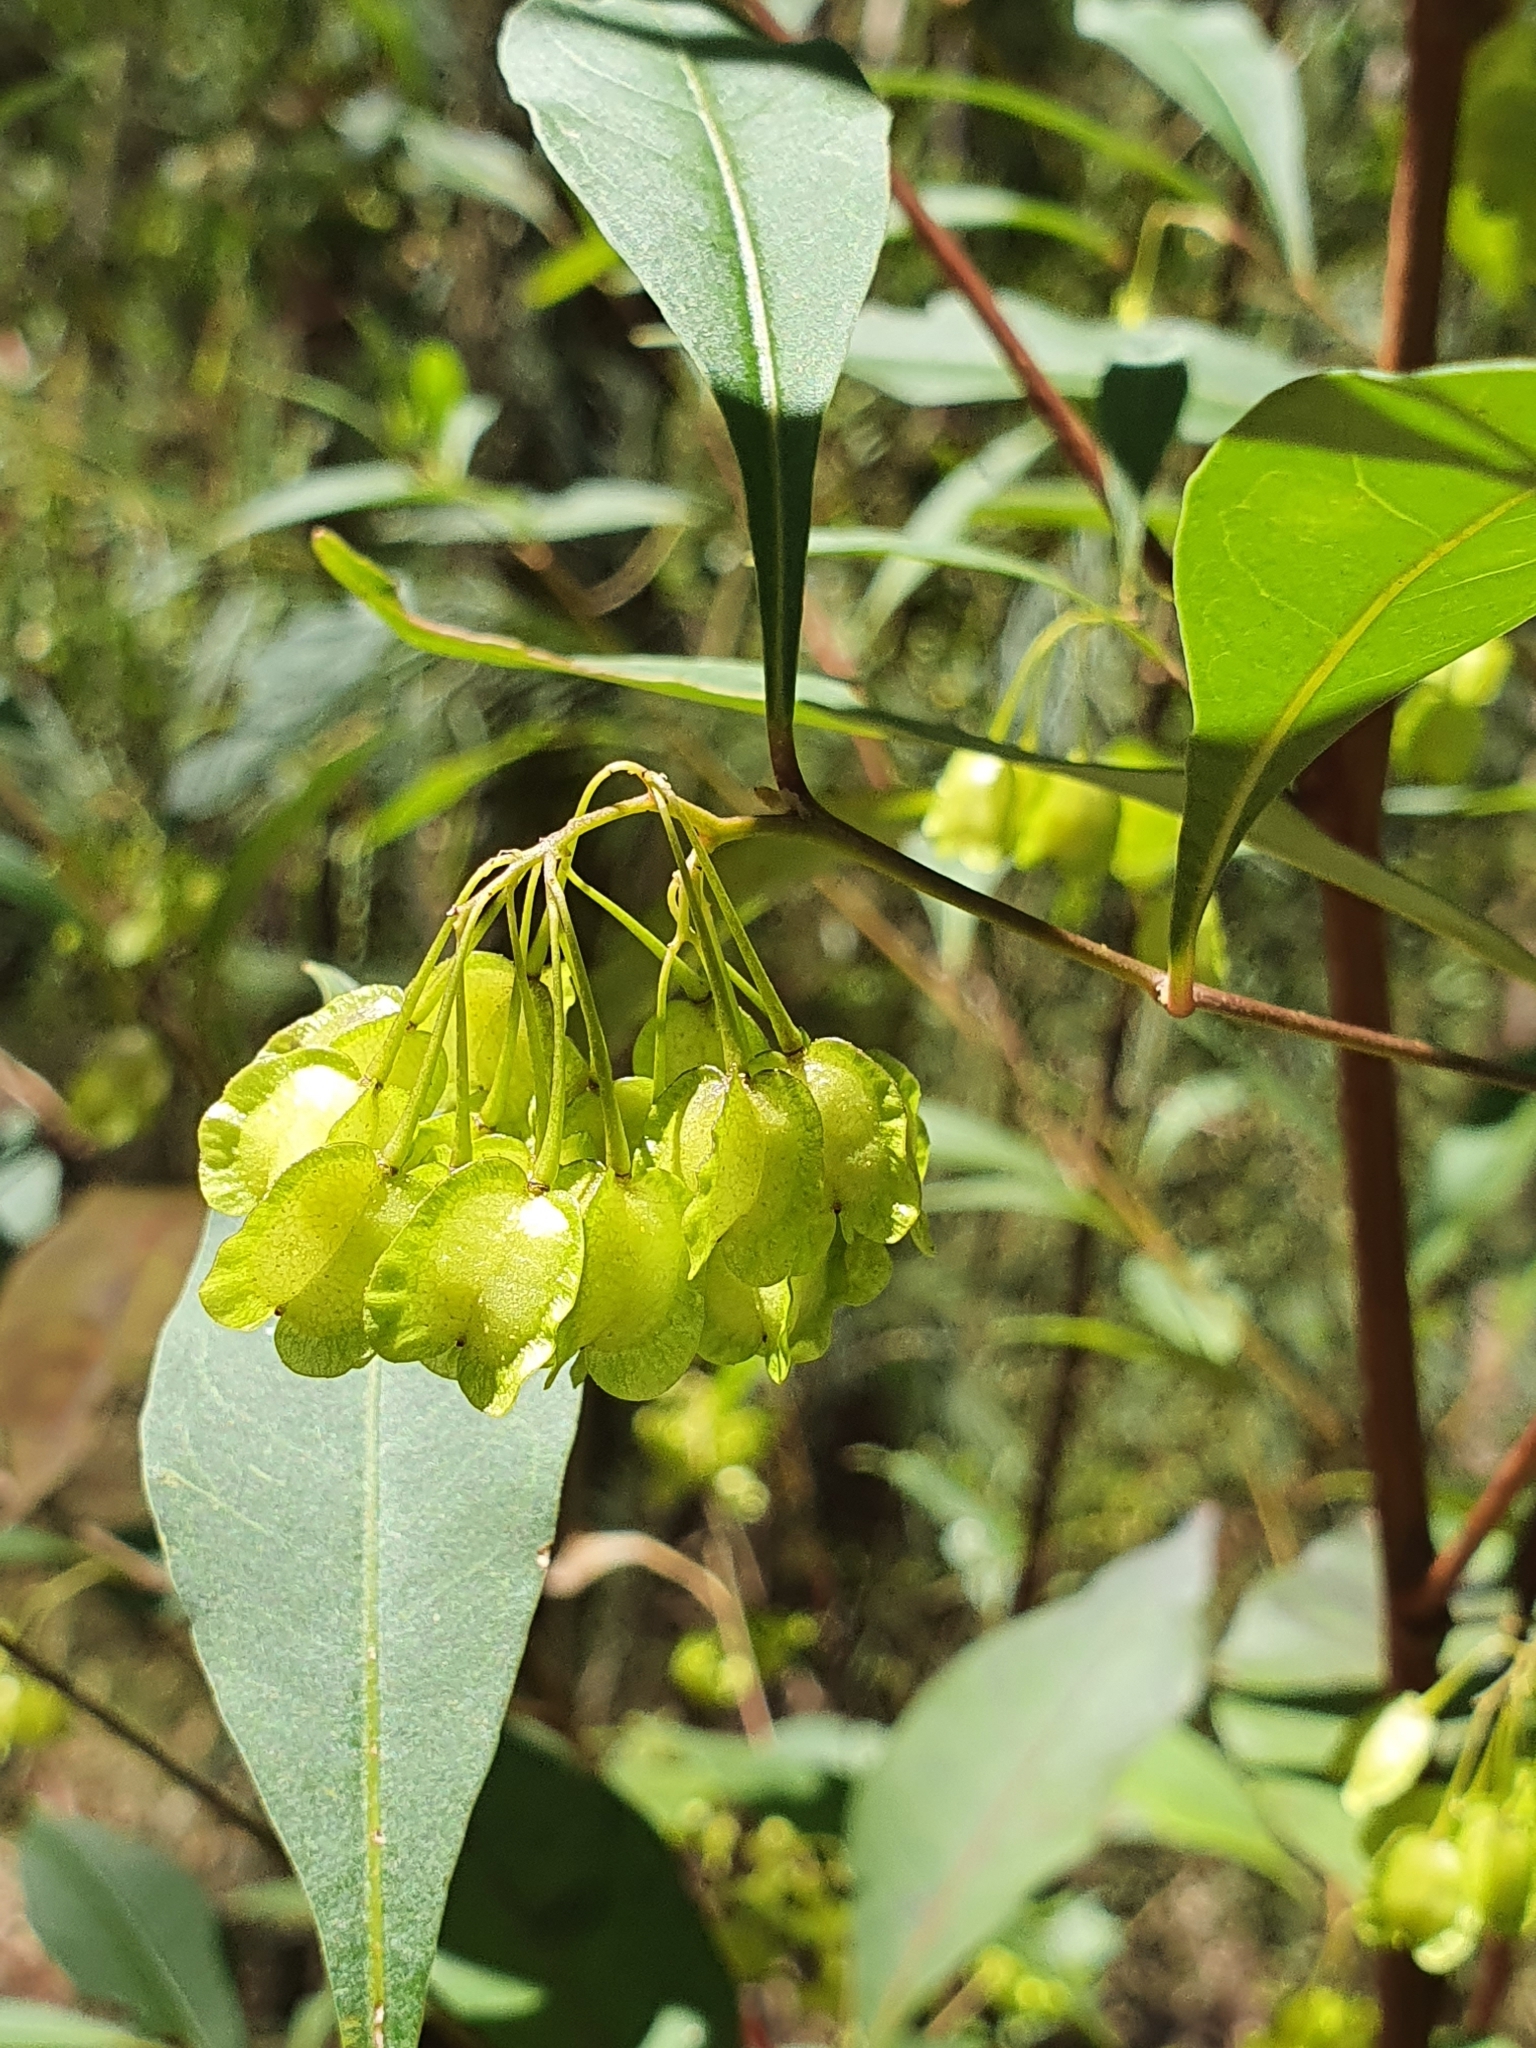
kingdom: Plantae
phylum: Tracheophyta
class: Magnoliopsida
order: Sapindales
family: Sapindaceae
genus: Dodonaea
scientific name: Dodonaea triquetra
